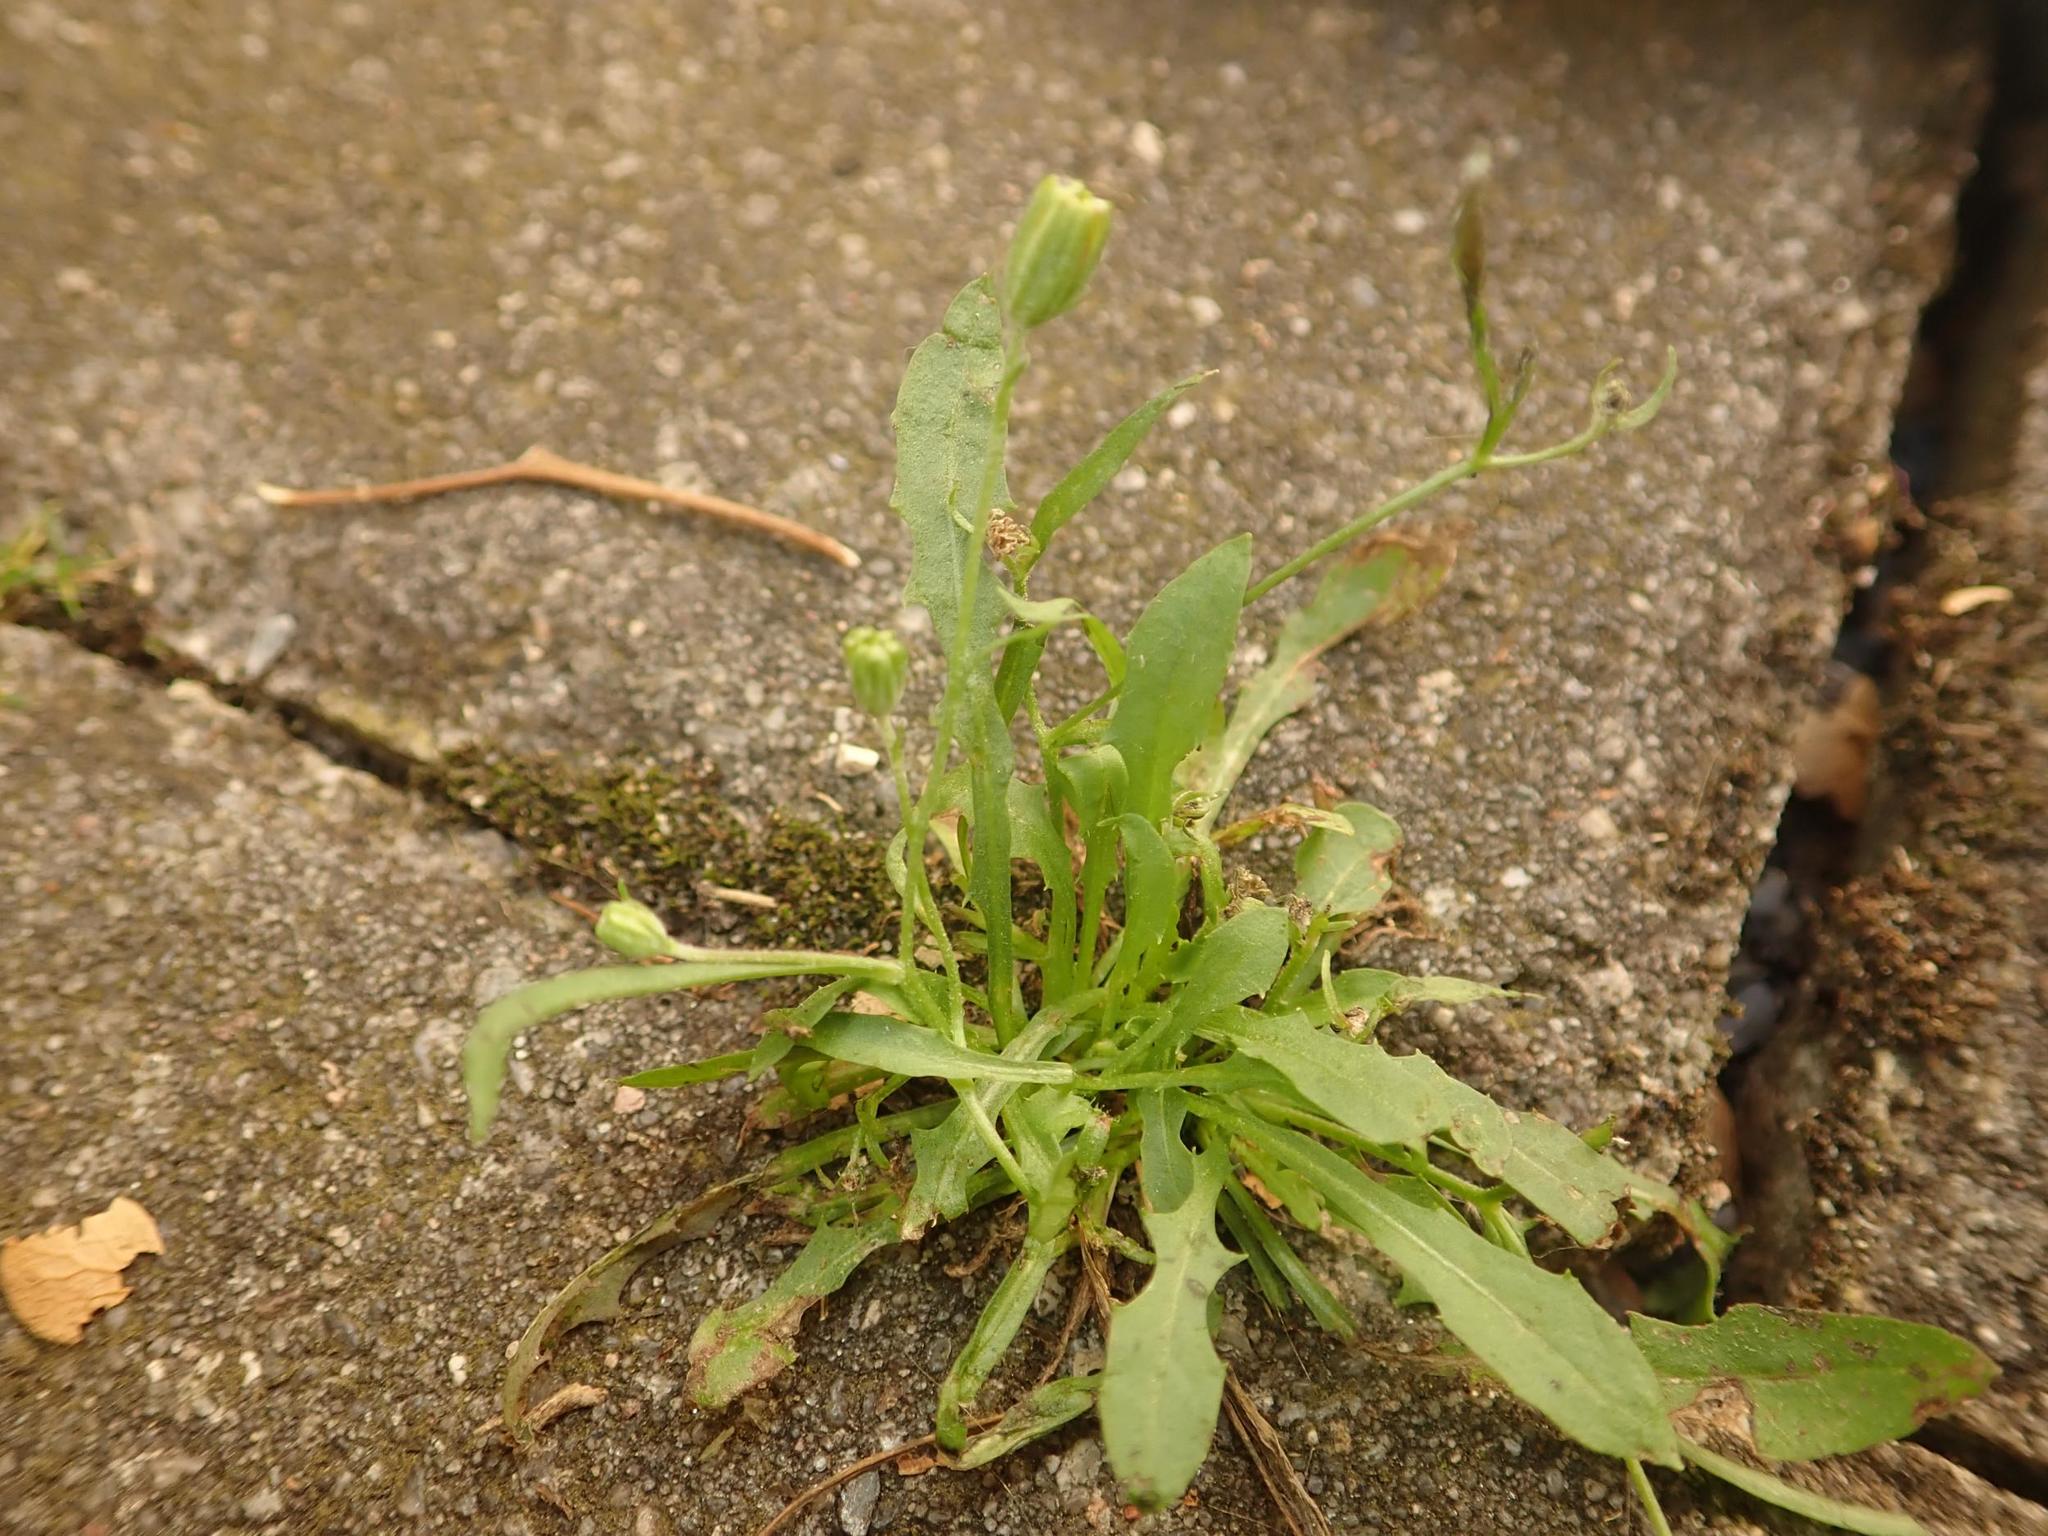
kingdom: Plantae
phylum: Tracheophyta
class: Magnoliopsida
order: Asterales
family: Asteraceae
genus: Crepis
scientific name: Crepis capillaris
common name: Smooth hawksbeard
